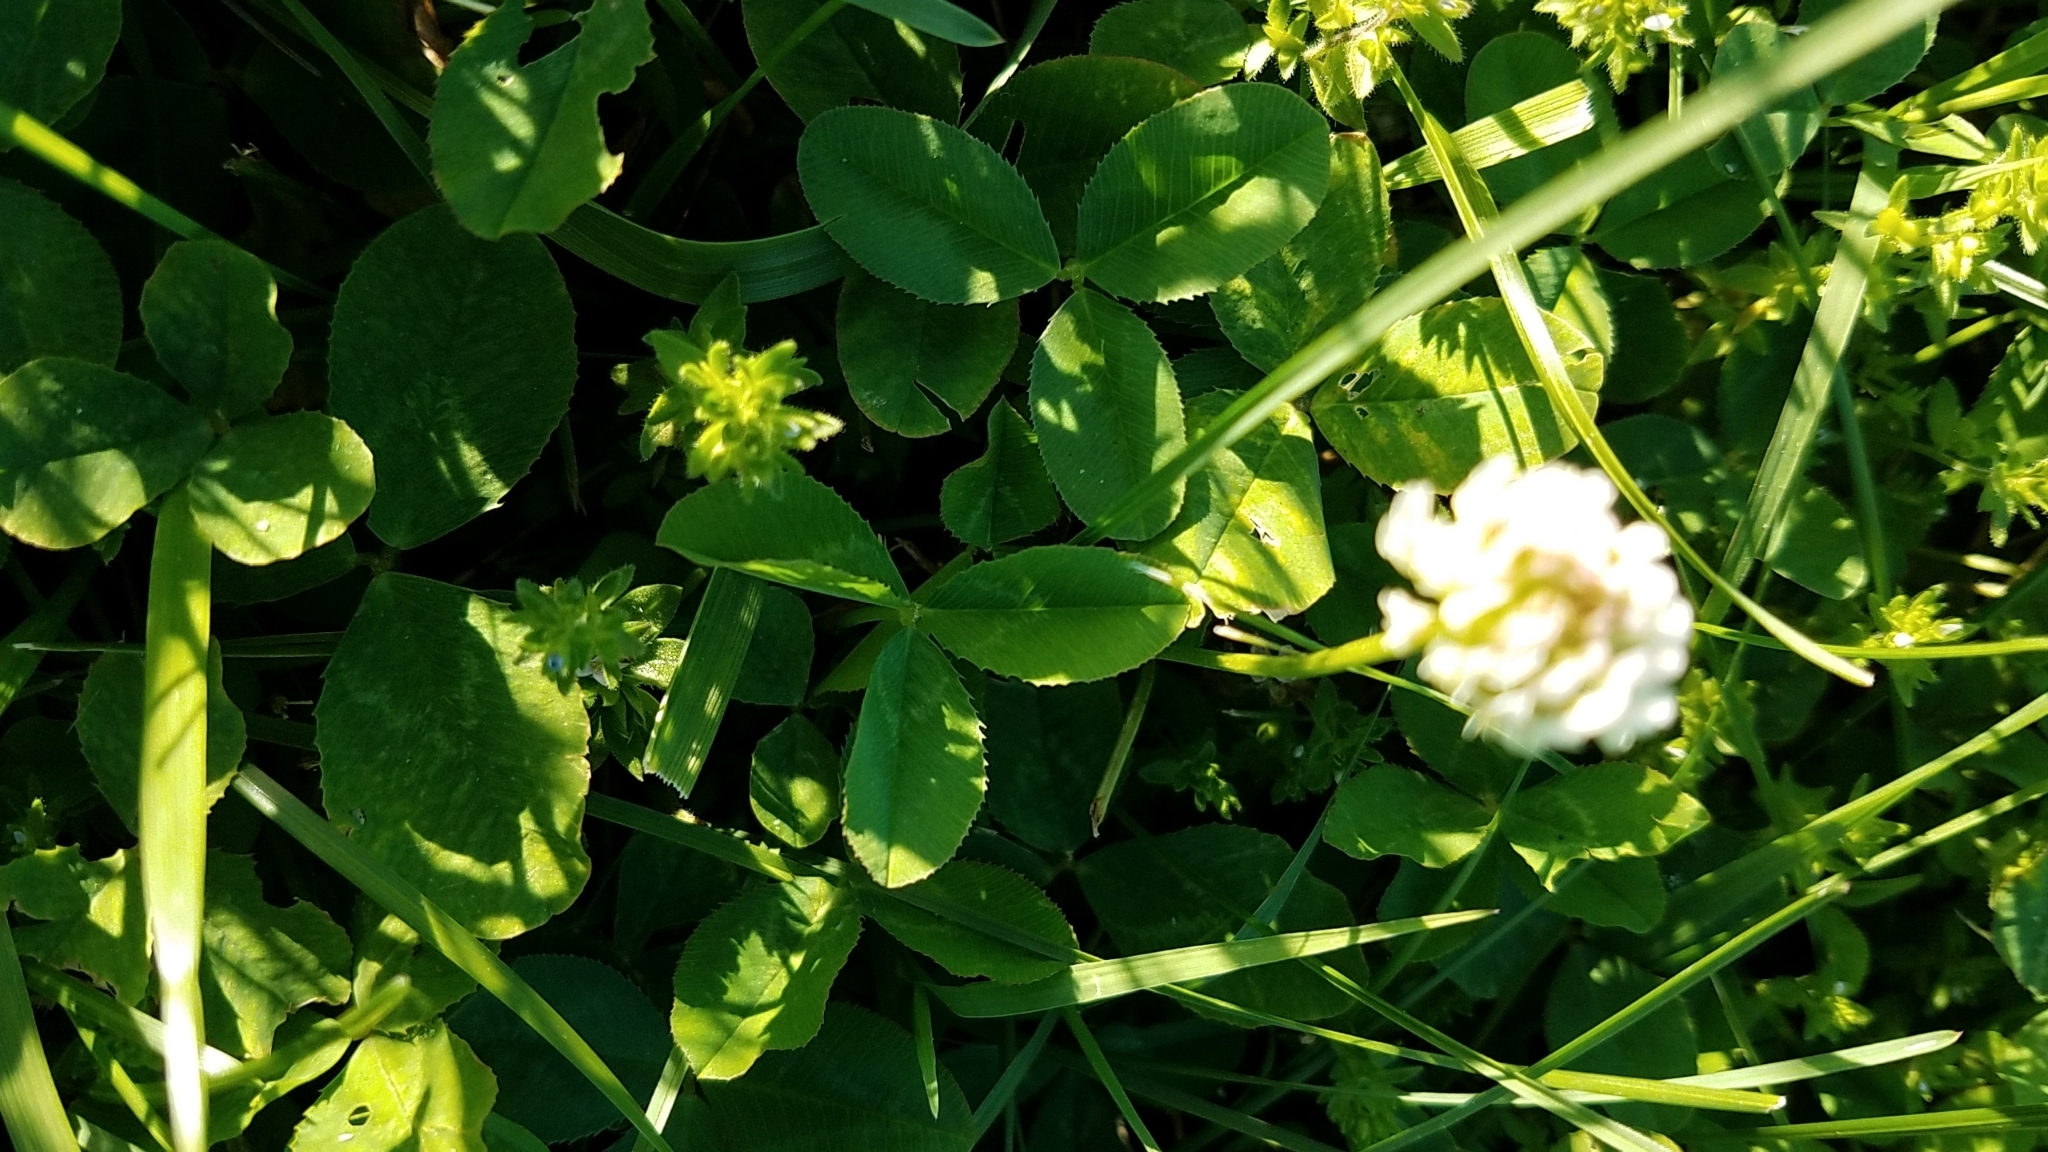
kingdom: Plantae
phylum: Tracheophyta
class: Magnoliopsida
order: Fabales
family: Fabaceae
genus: Trifolium
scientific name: Trifolium repens
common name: White clover
